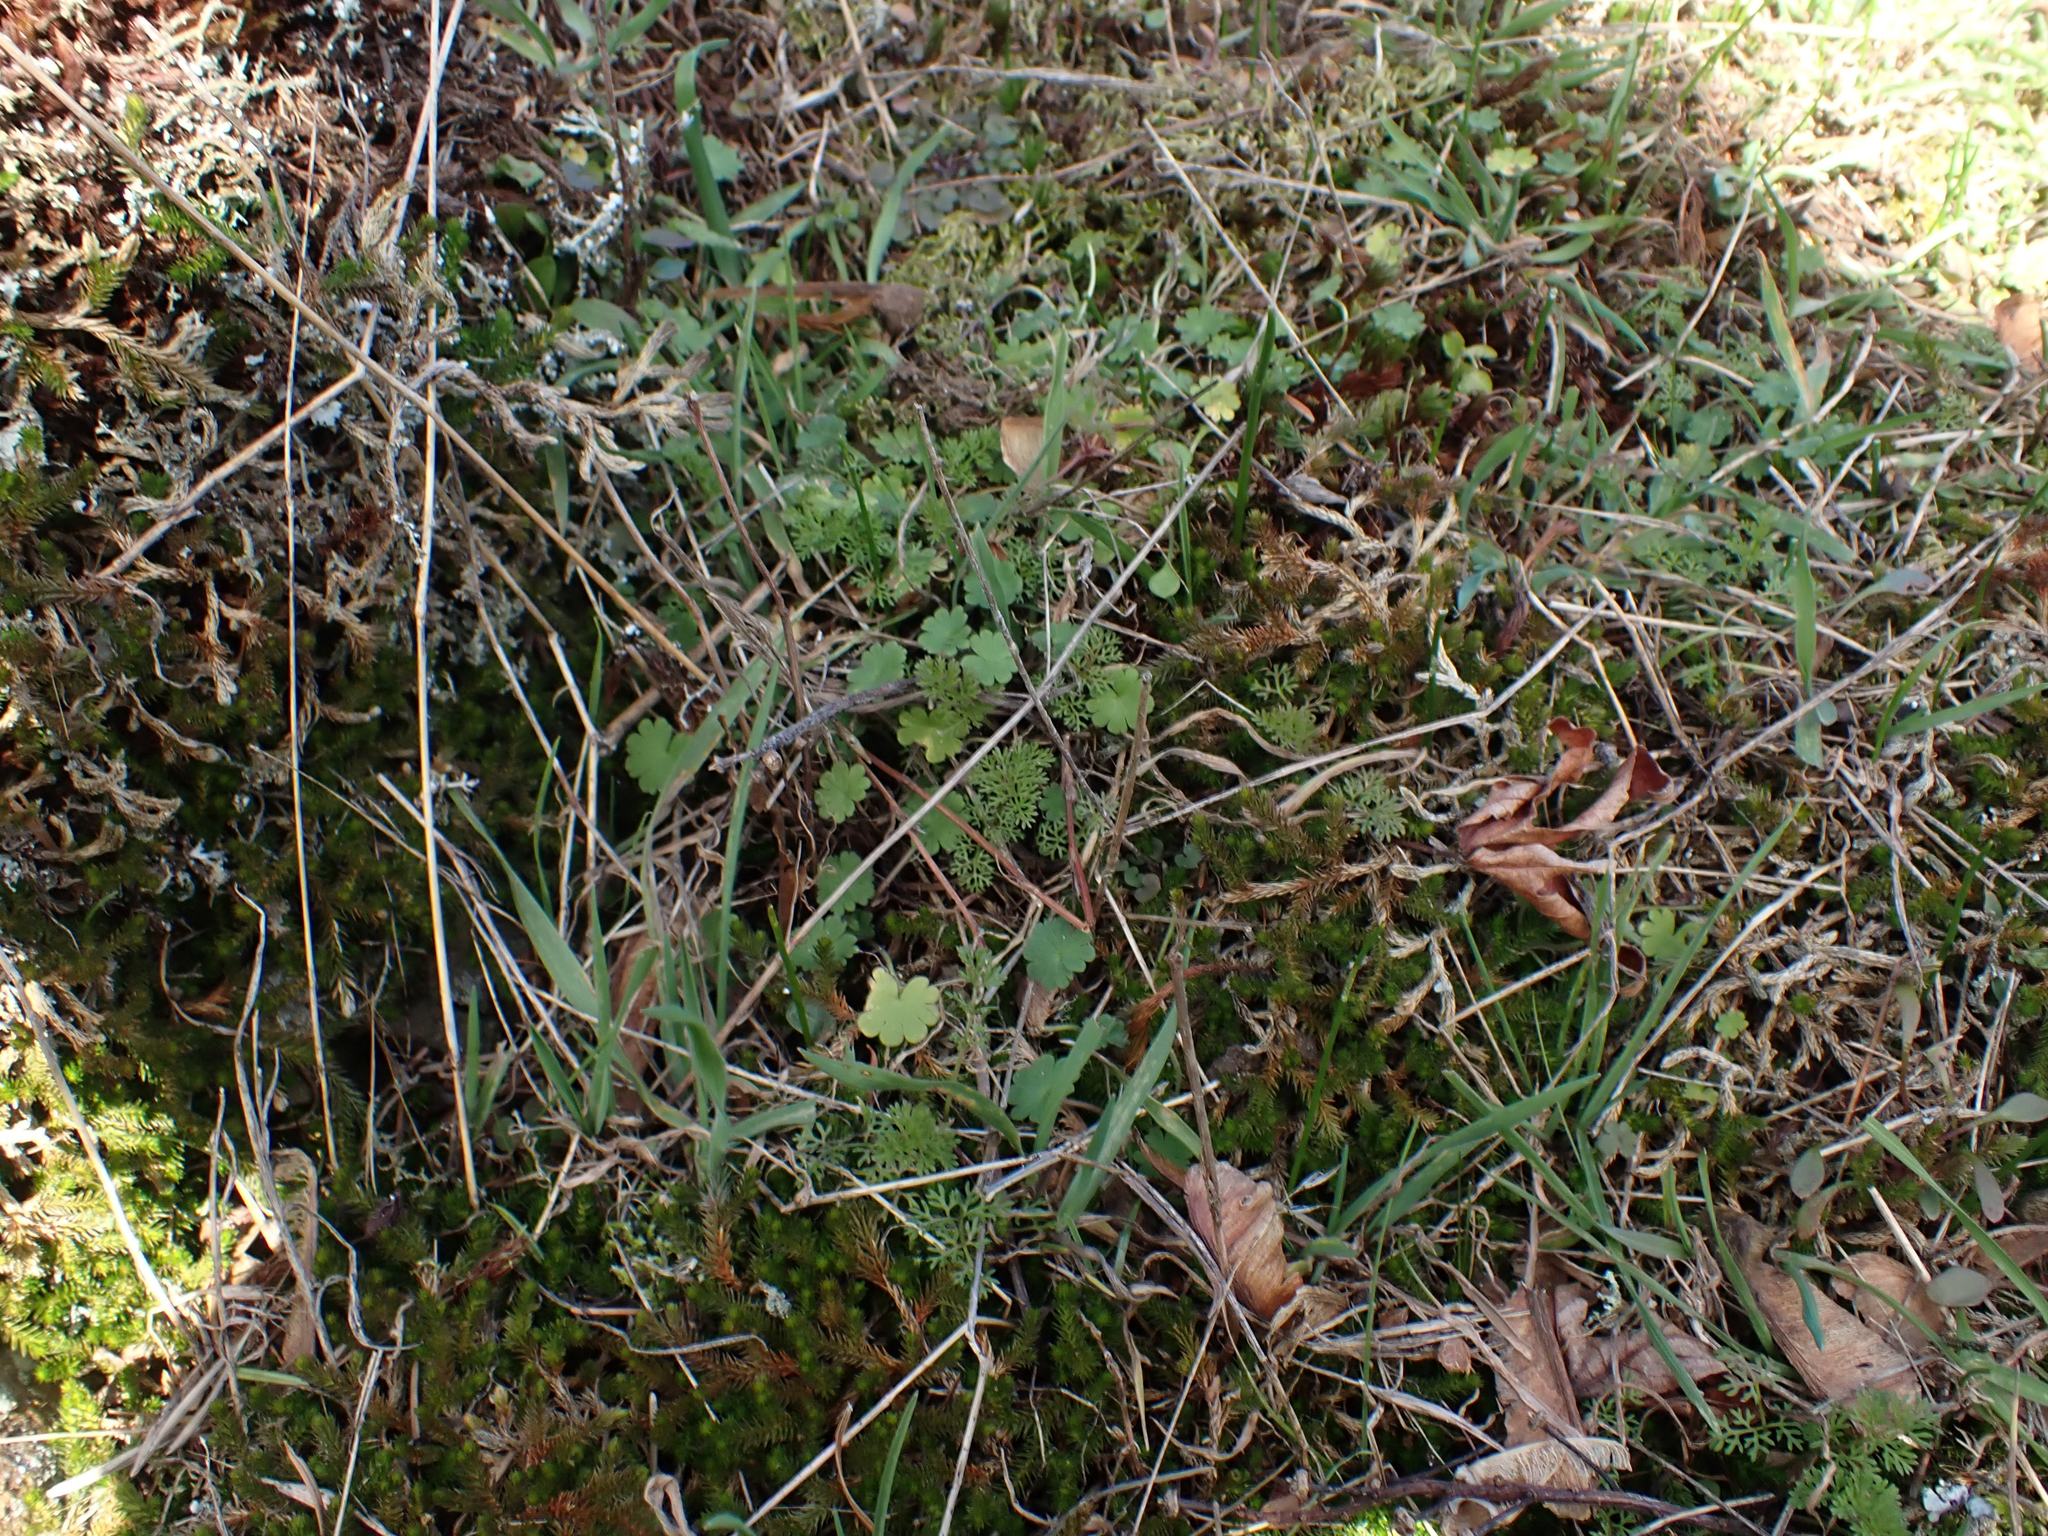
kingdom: Plantae
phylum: Tracheophyta
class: Magnoliopsida
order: Apiales
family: Apiaceae
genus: Daucus
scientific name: Daucus pusillus
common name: Southwest wild carrot
